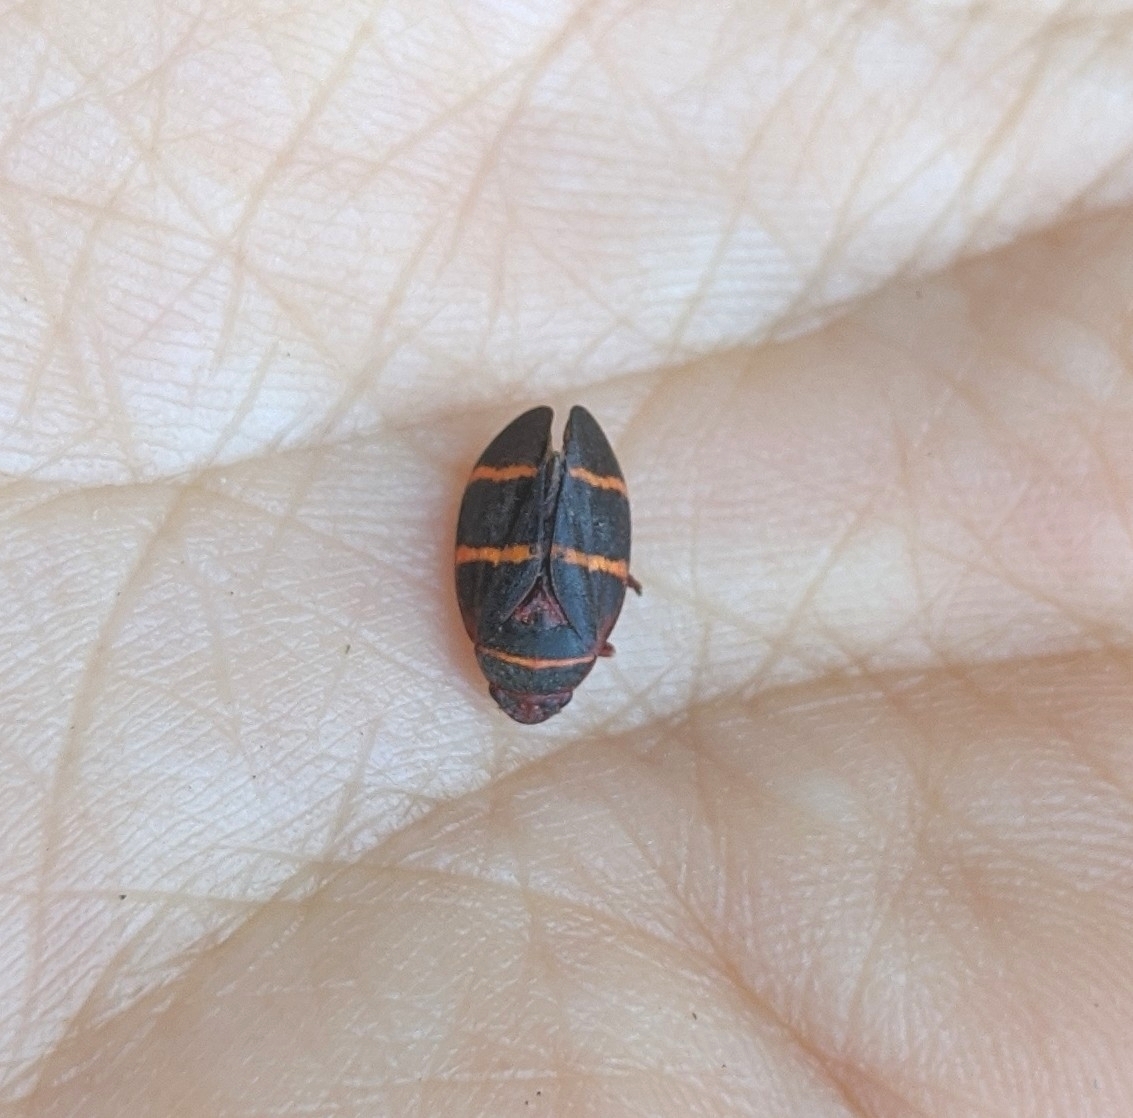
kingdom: Animalia
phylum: Arthropoda
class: Insecta
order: Hemiptera
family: Cercopidae
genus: Prosapia
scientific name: Prosapia bicincta
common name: Twolined spittlebug
